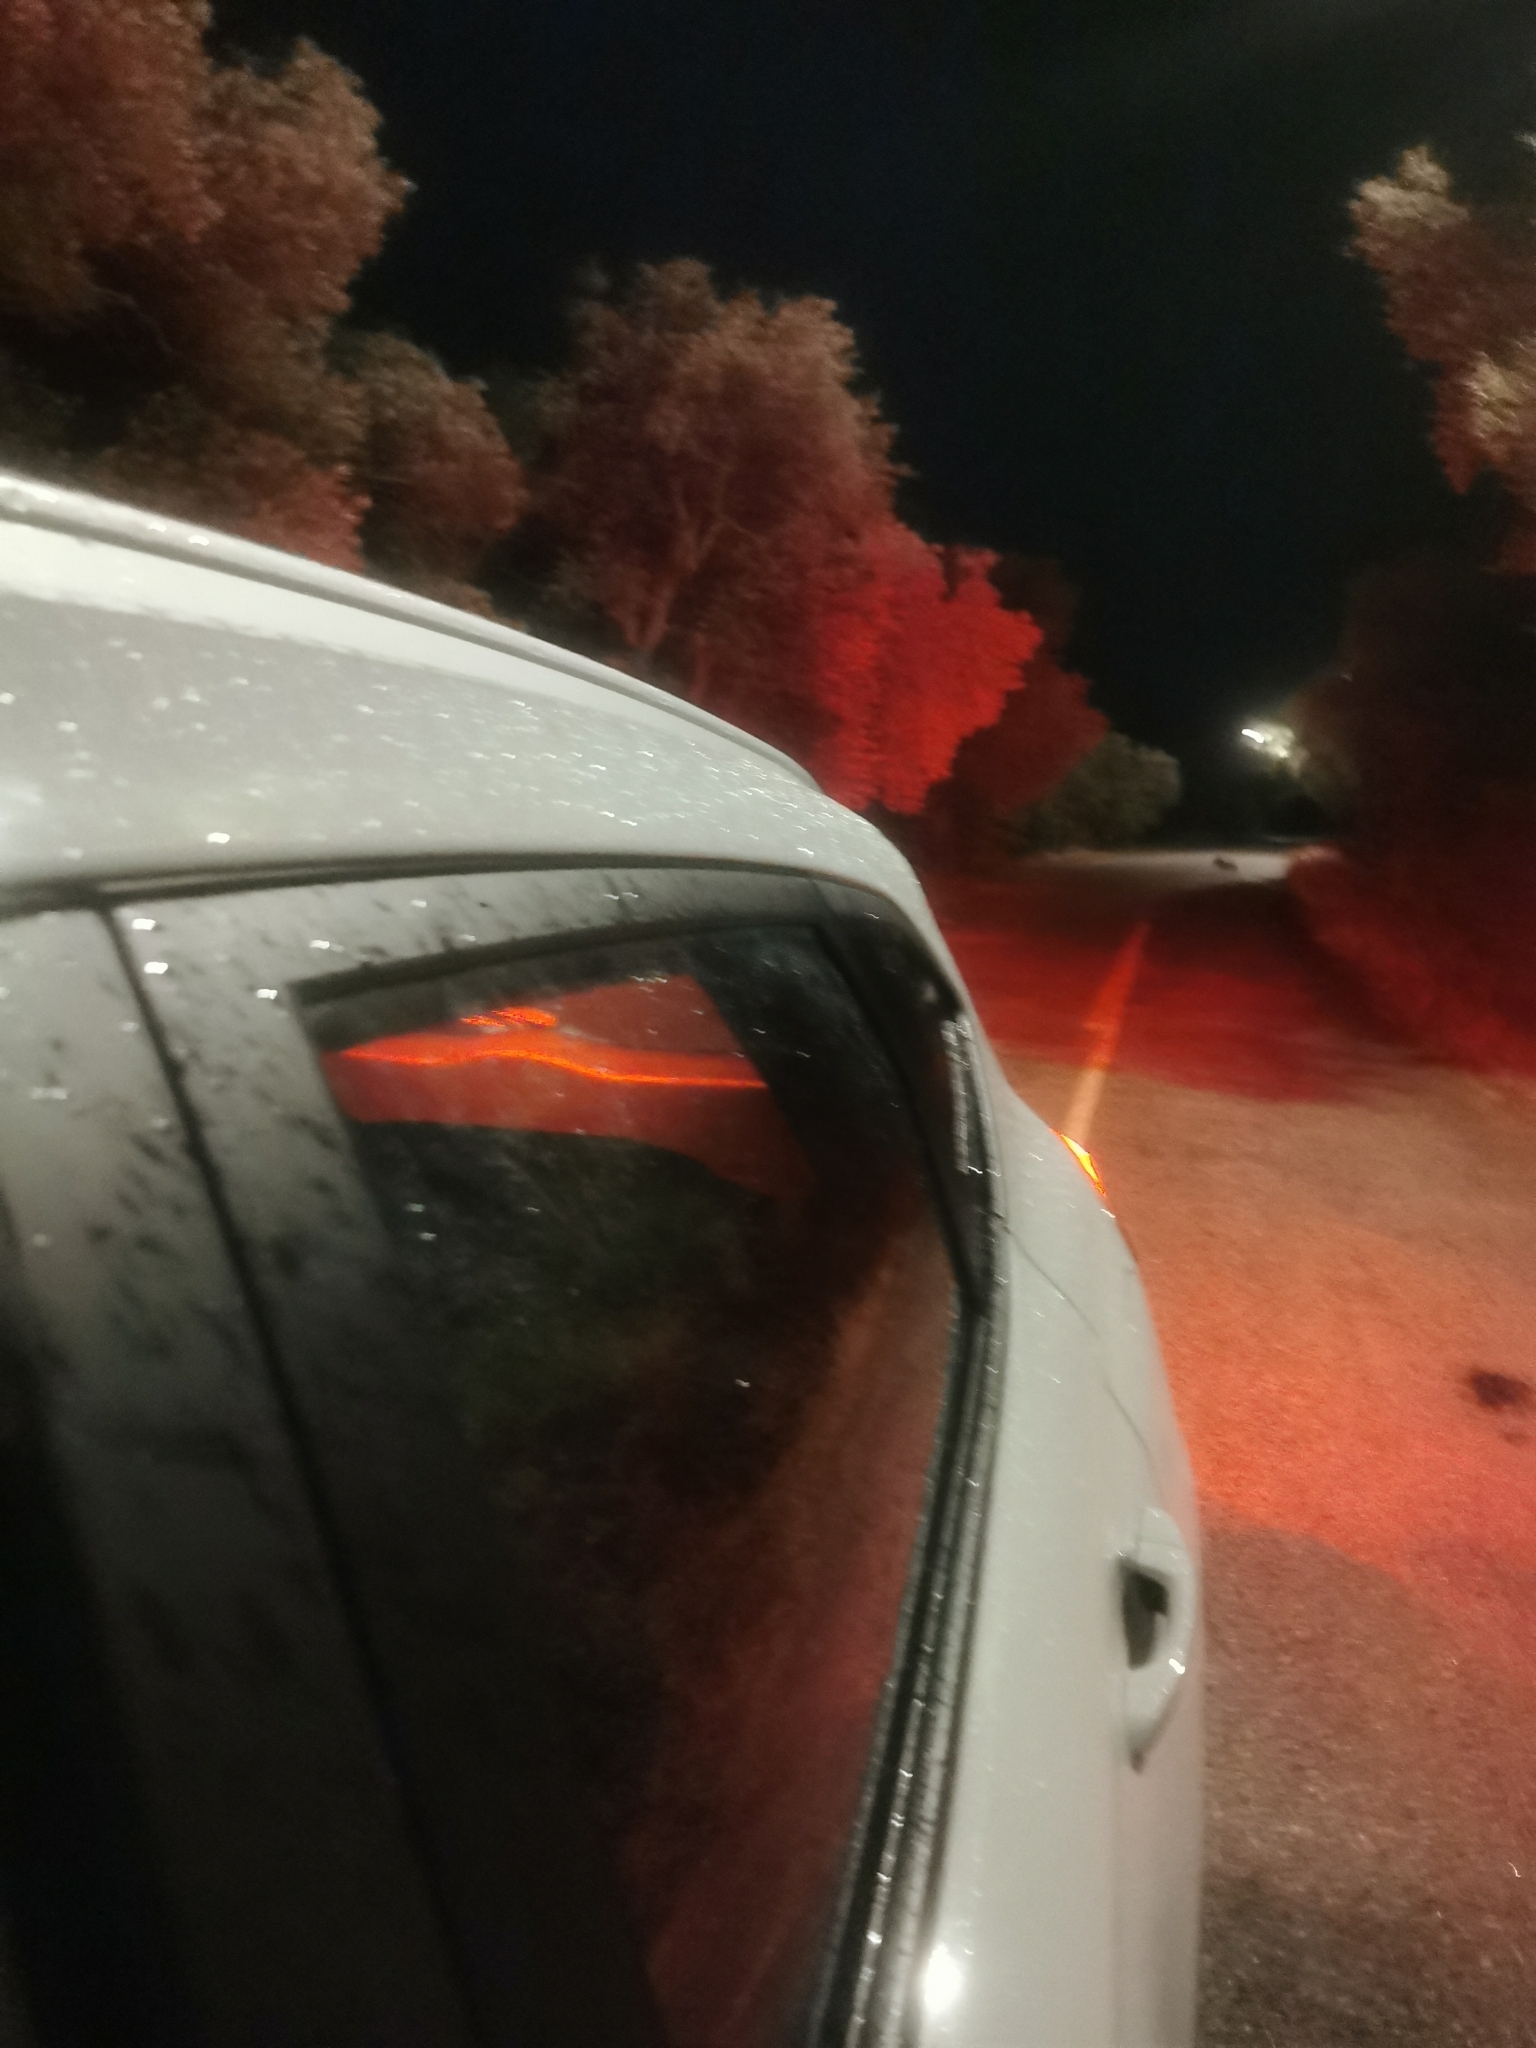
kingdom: Animalia
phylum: Chordata
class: Mammalia
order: Artiodactyla
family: Suidae
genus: Sus
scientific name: Sus scrofa
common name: Wild boar
